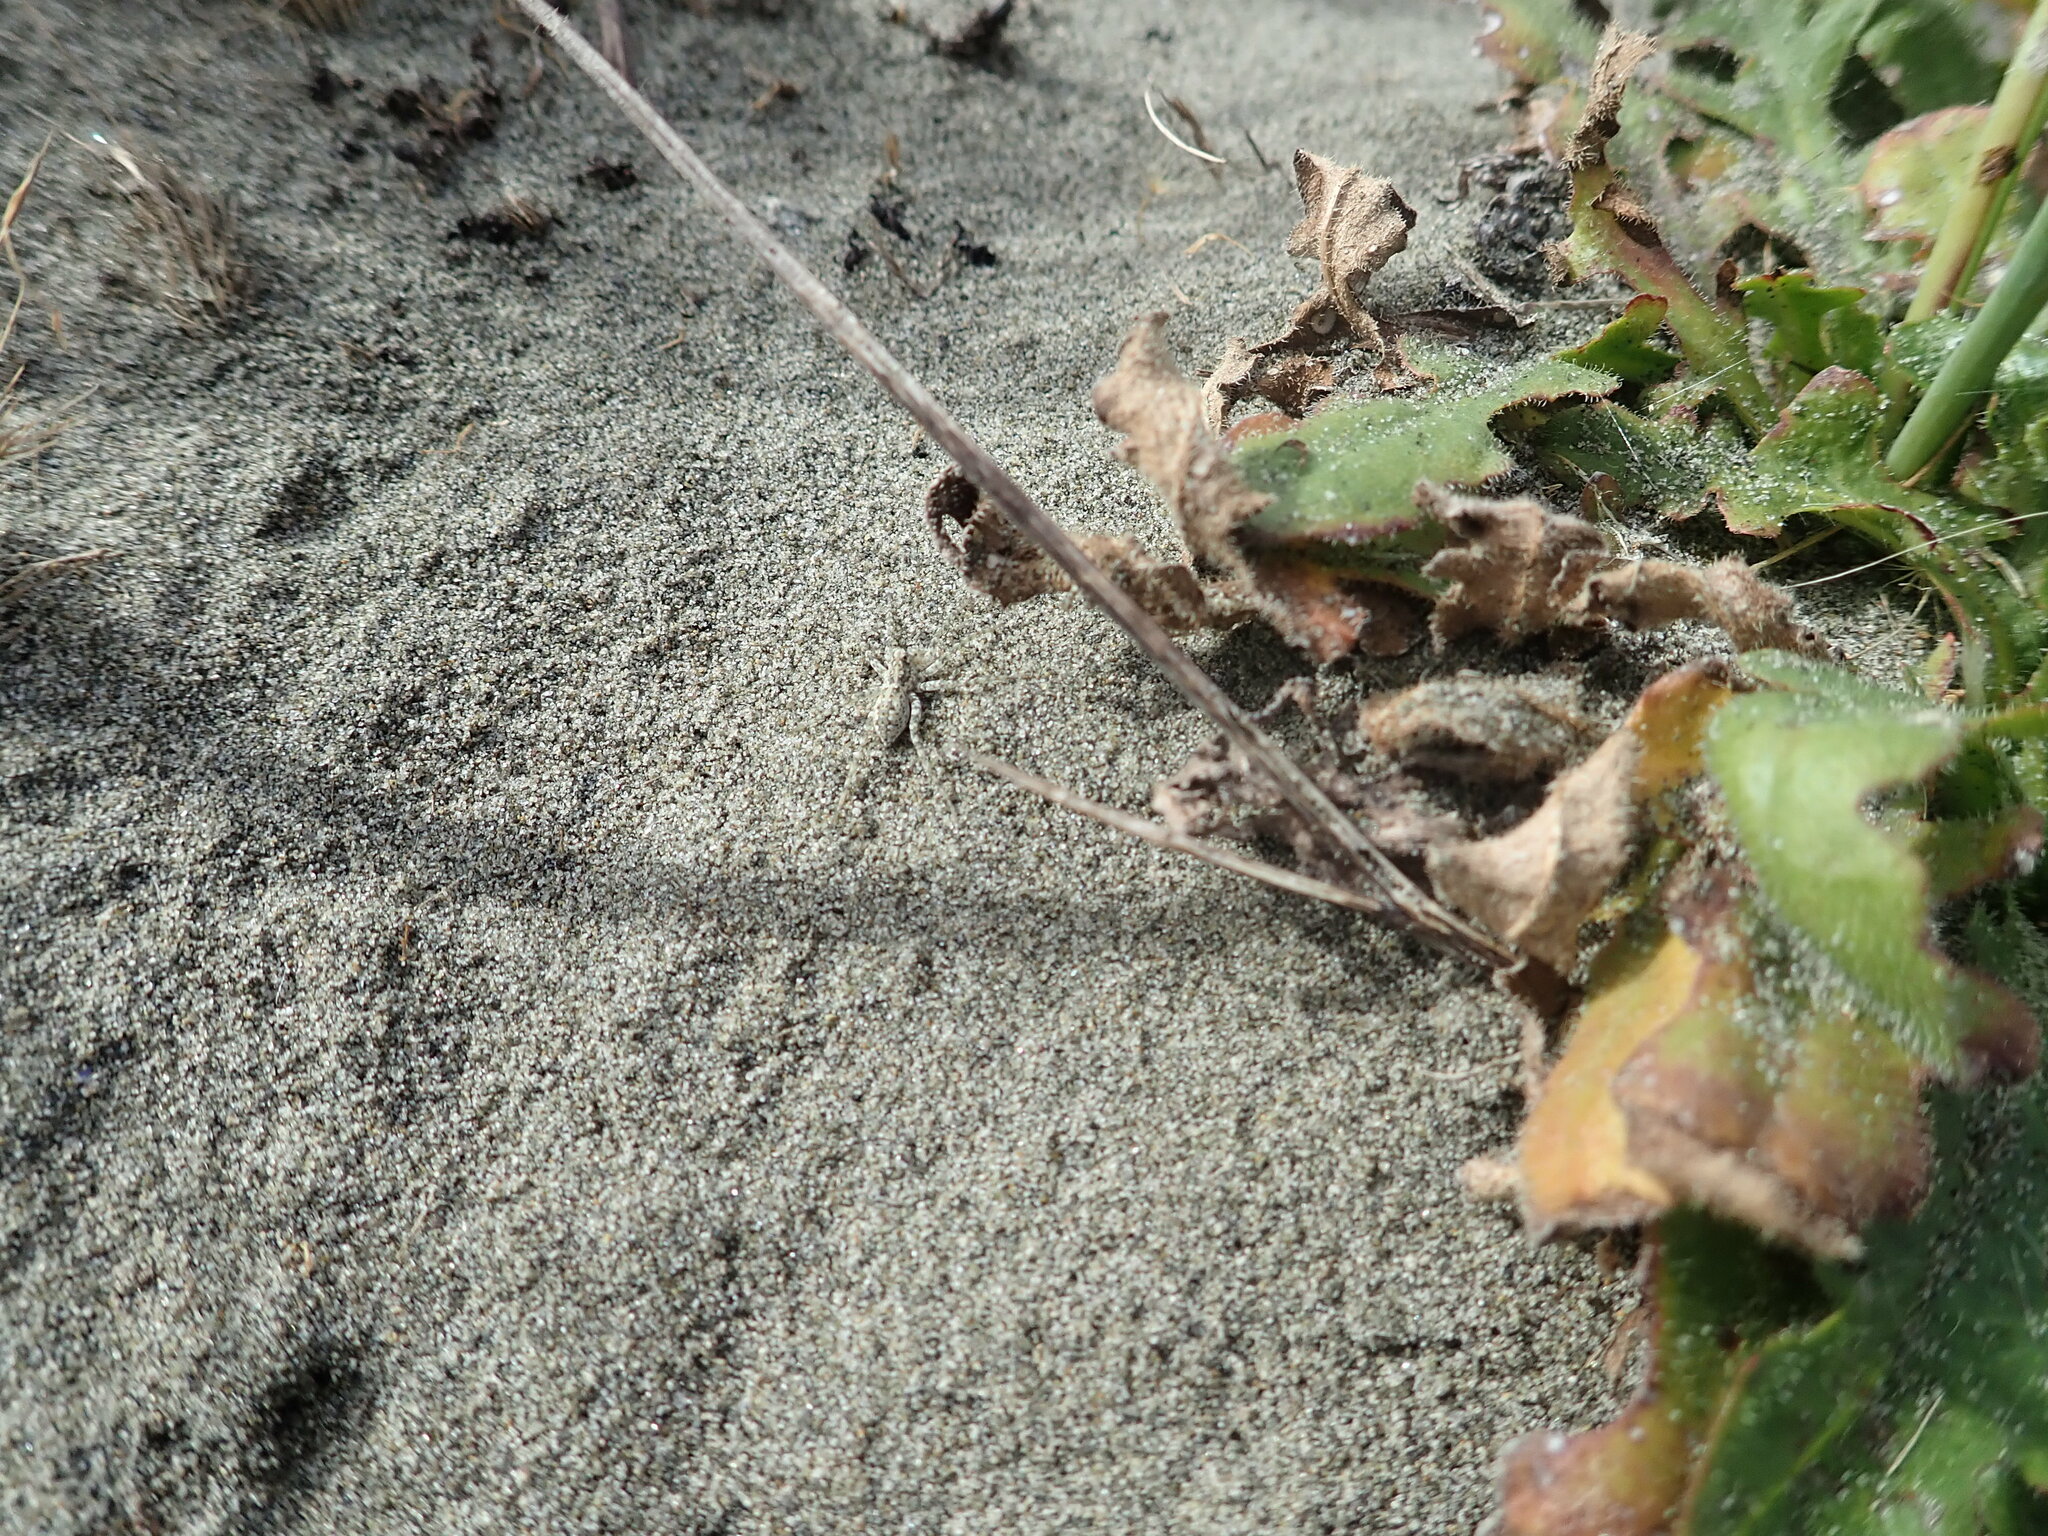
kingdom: Animalia
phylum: Arthropoda
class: Arachnida
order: Araneae
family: Lycosidae
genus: Anoteropsis
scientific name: Anoteropsis litoralis
